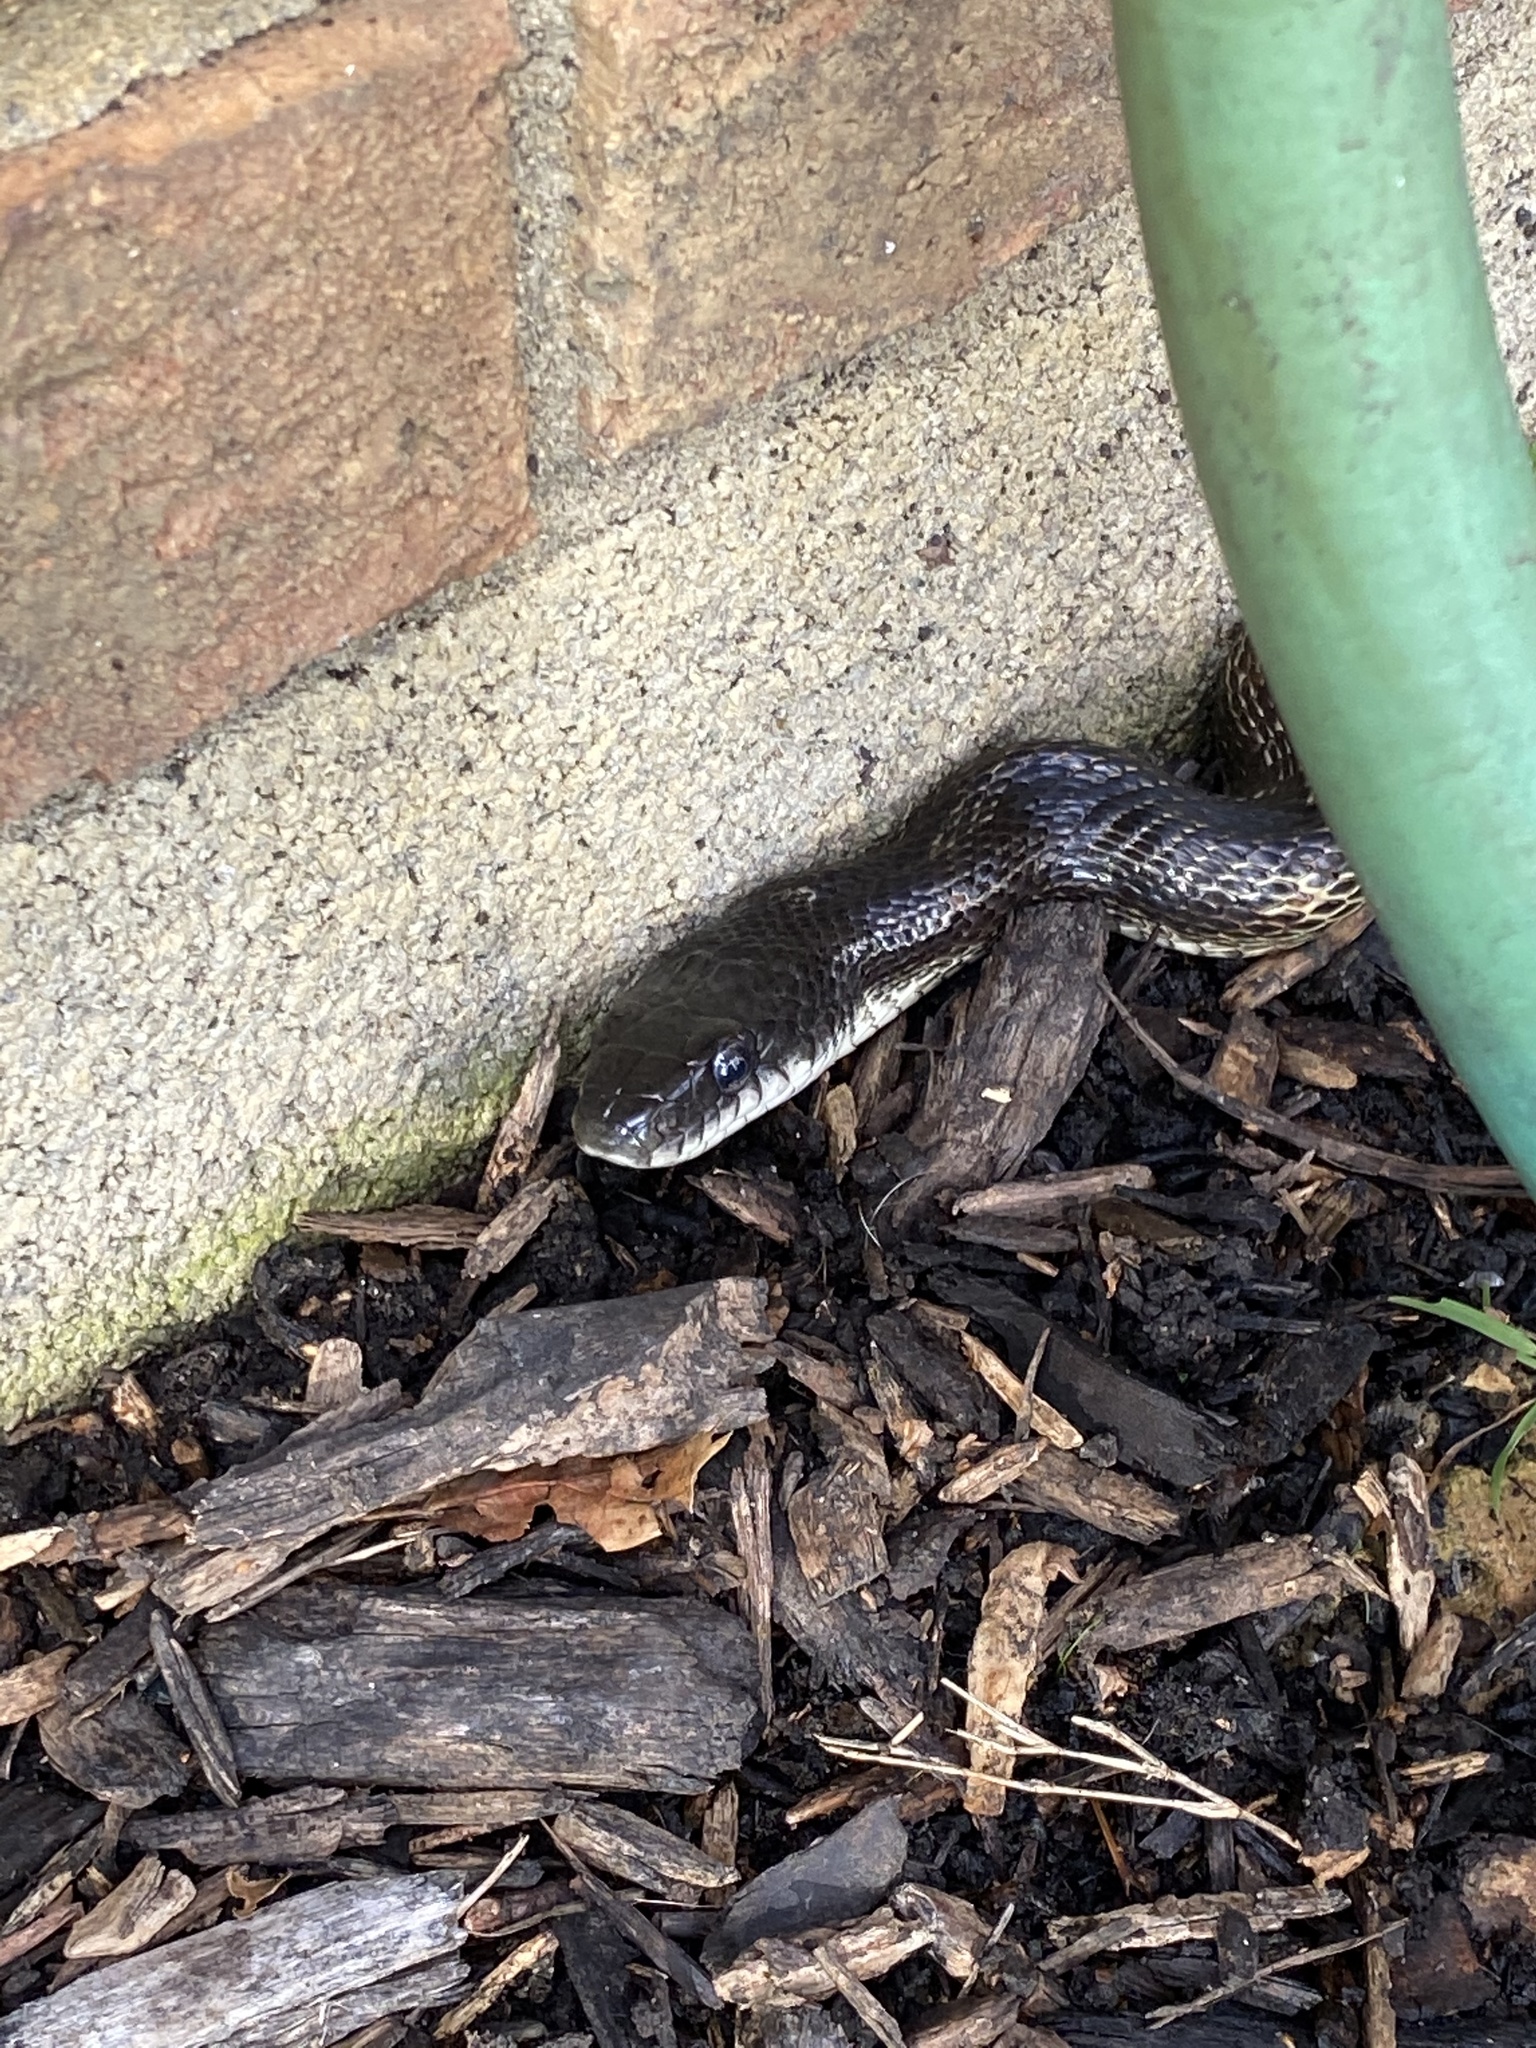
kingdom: Animalia
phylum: Chordata
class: Squamata
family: Colubridae
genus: Pantherophis
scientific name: Pantherophis spiloides
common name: Gray rat snake
